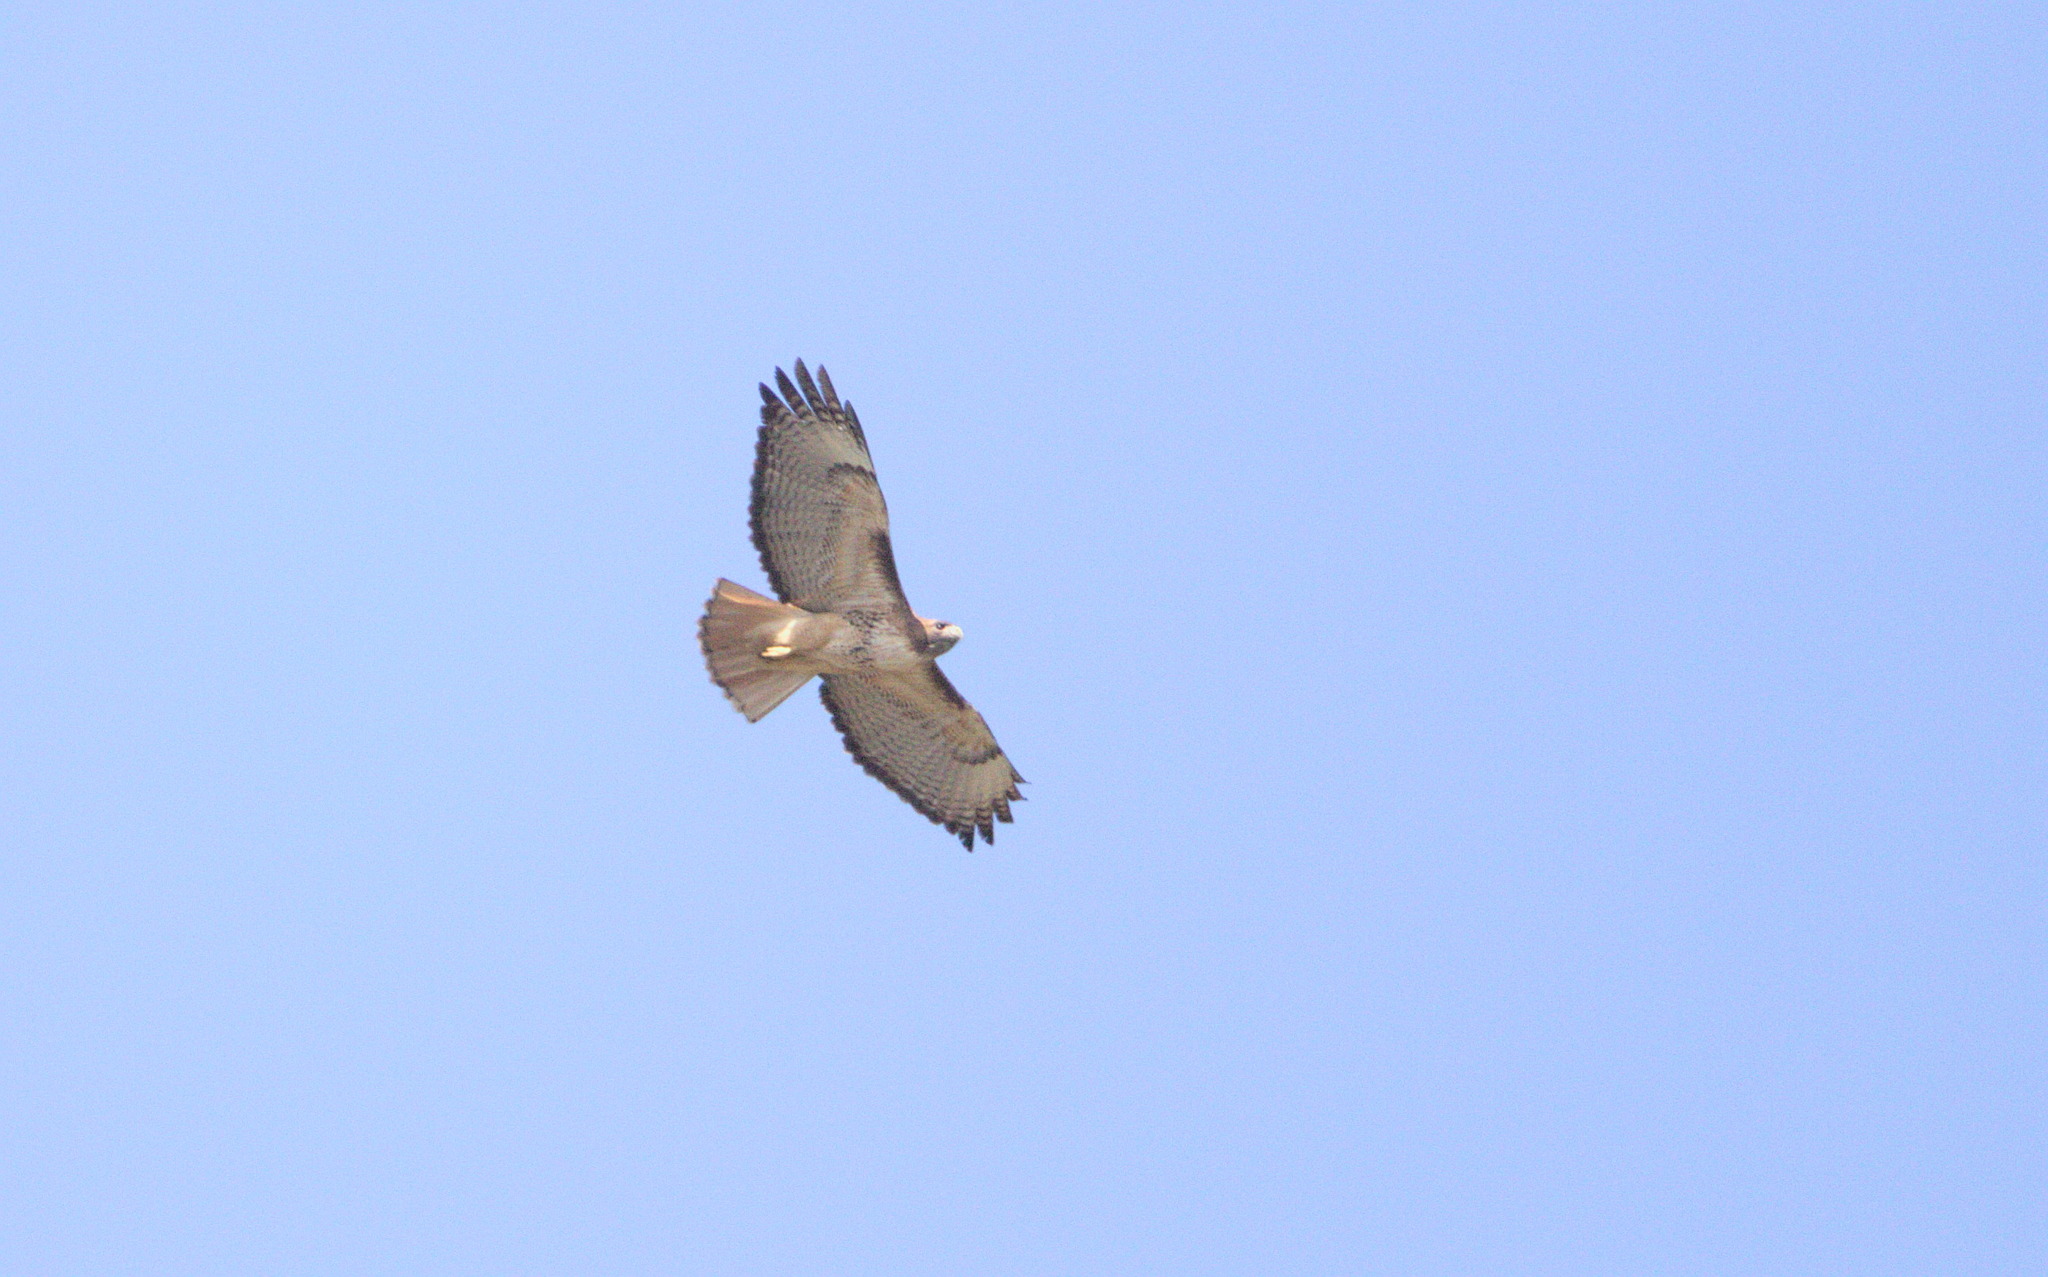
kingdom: Animalia
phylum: Chordata
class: Aves
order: Accipitriformes
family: Accipitridae
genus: Buteo
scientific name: Buteo jamaicensis
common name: Red-tailed hawk
